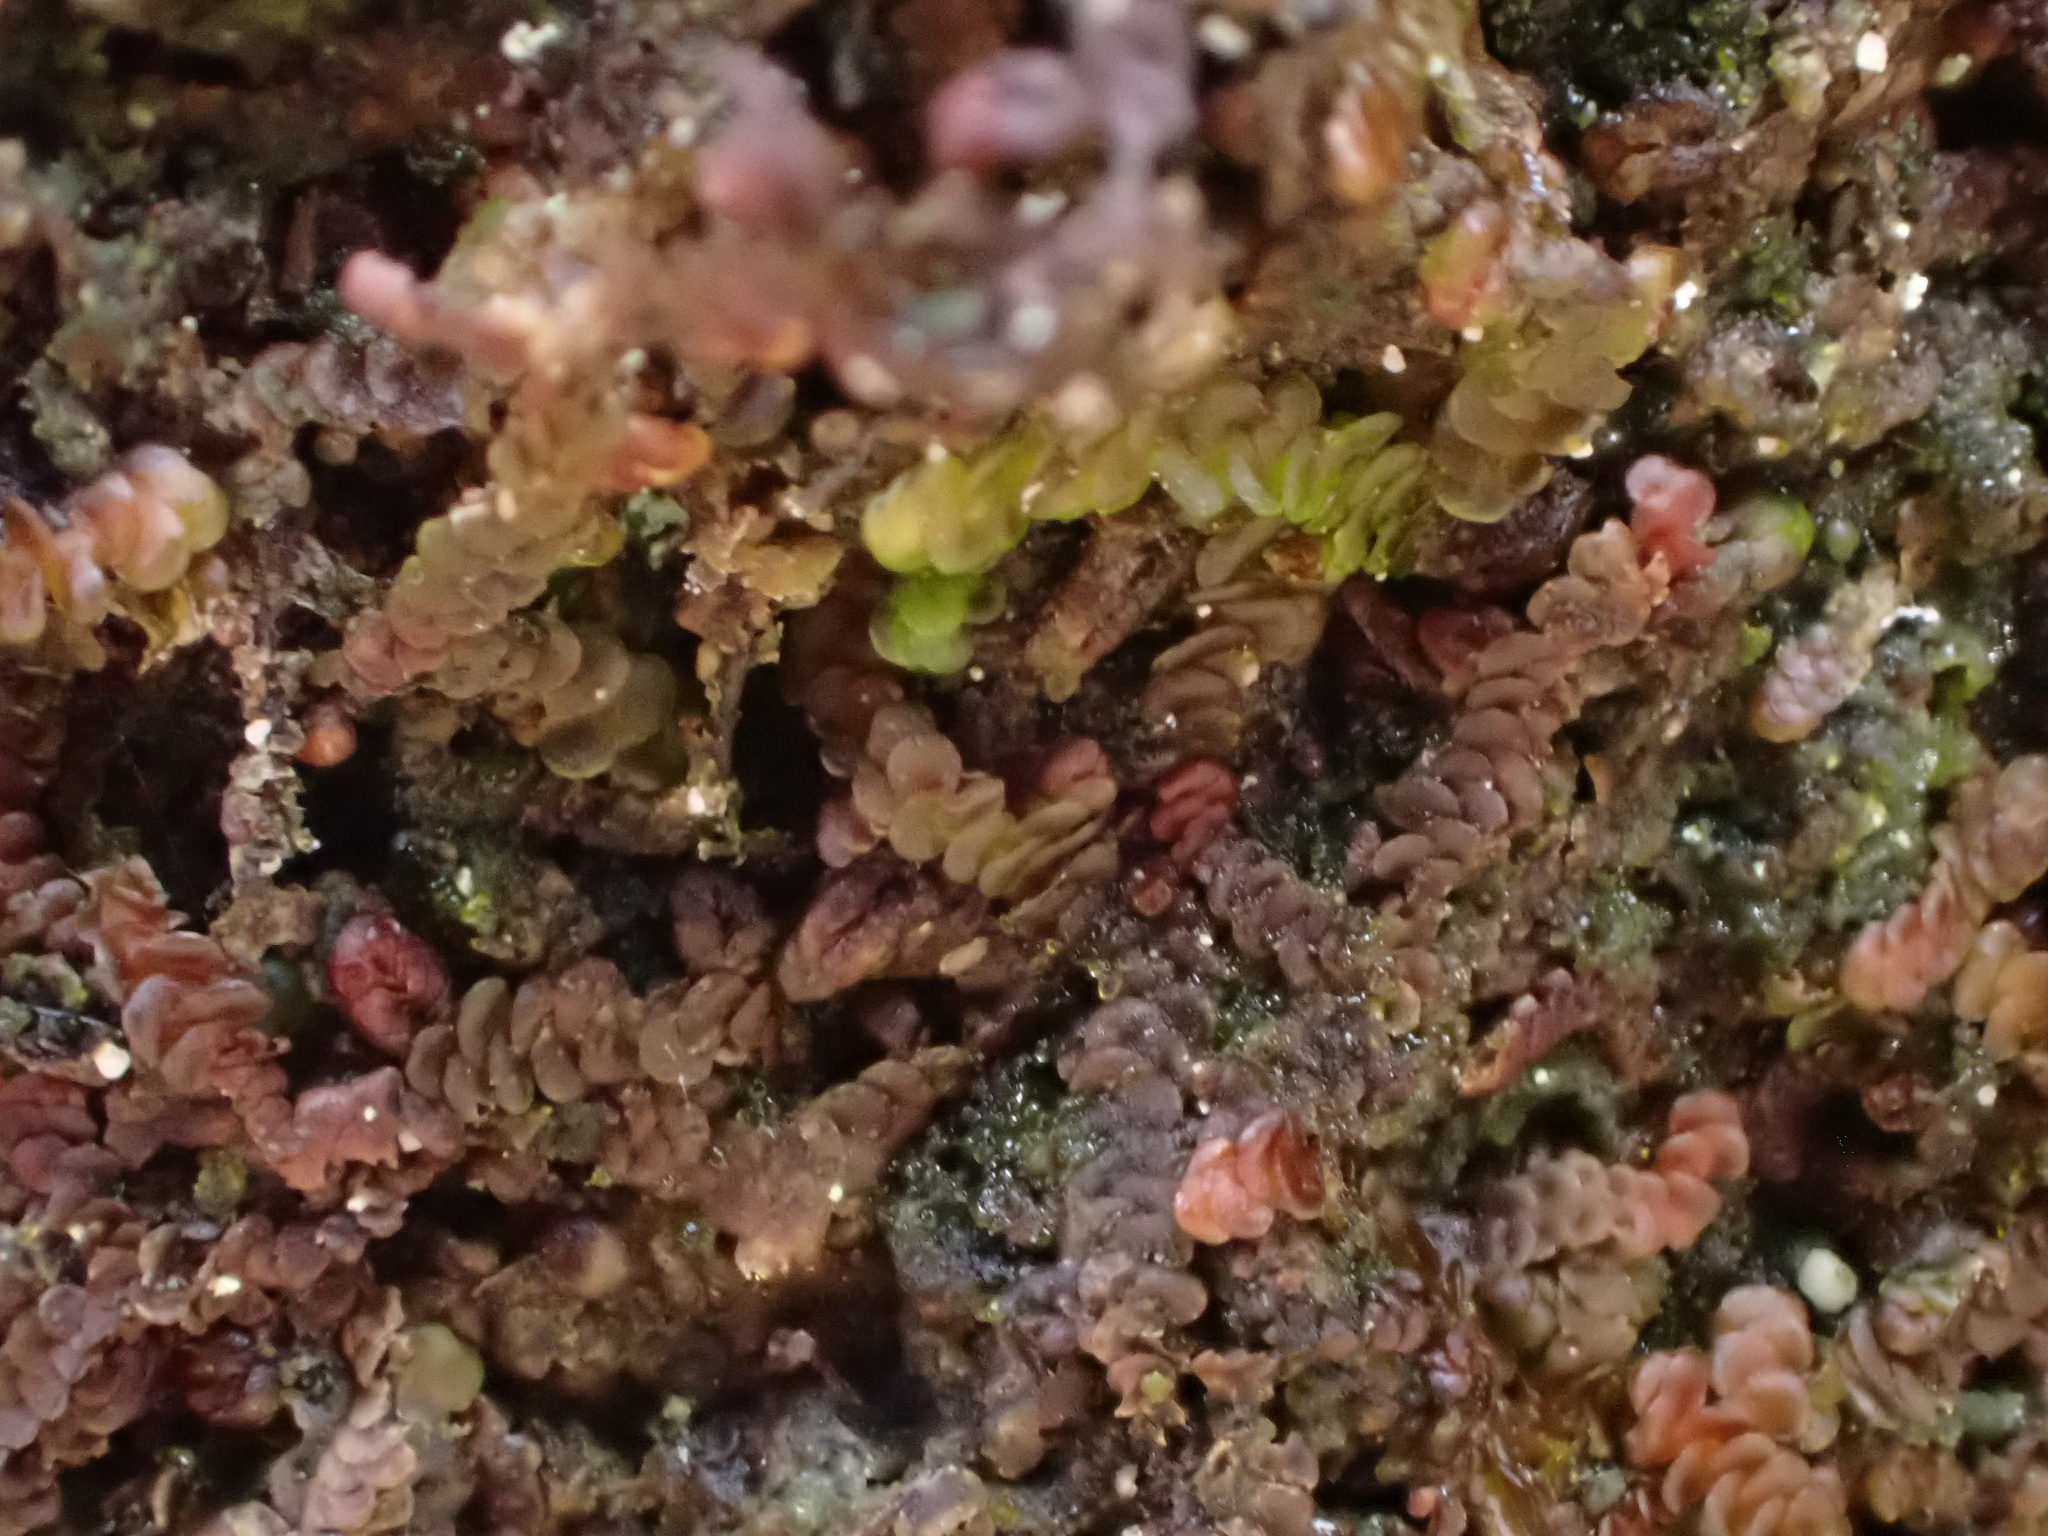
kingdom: Plantae
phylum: Marchantiophyta
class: Jungermanniopsida
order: Porellales
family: Frullaniaceae
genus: Frullania
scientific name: Frullania dilatata
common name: Dilated scalewort
